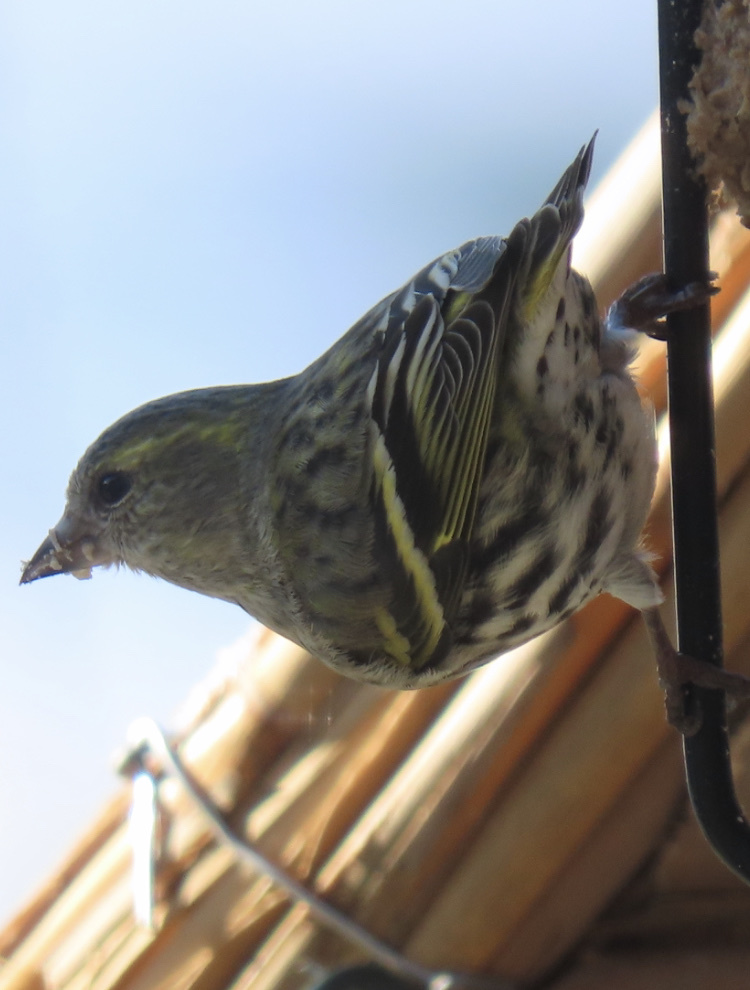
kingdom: Animalia
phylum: Chordata
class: Aves
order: Passeriformes
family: Fringillidae
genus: Spinus
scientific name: Spinus spinus
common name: Eurasian siskin
